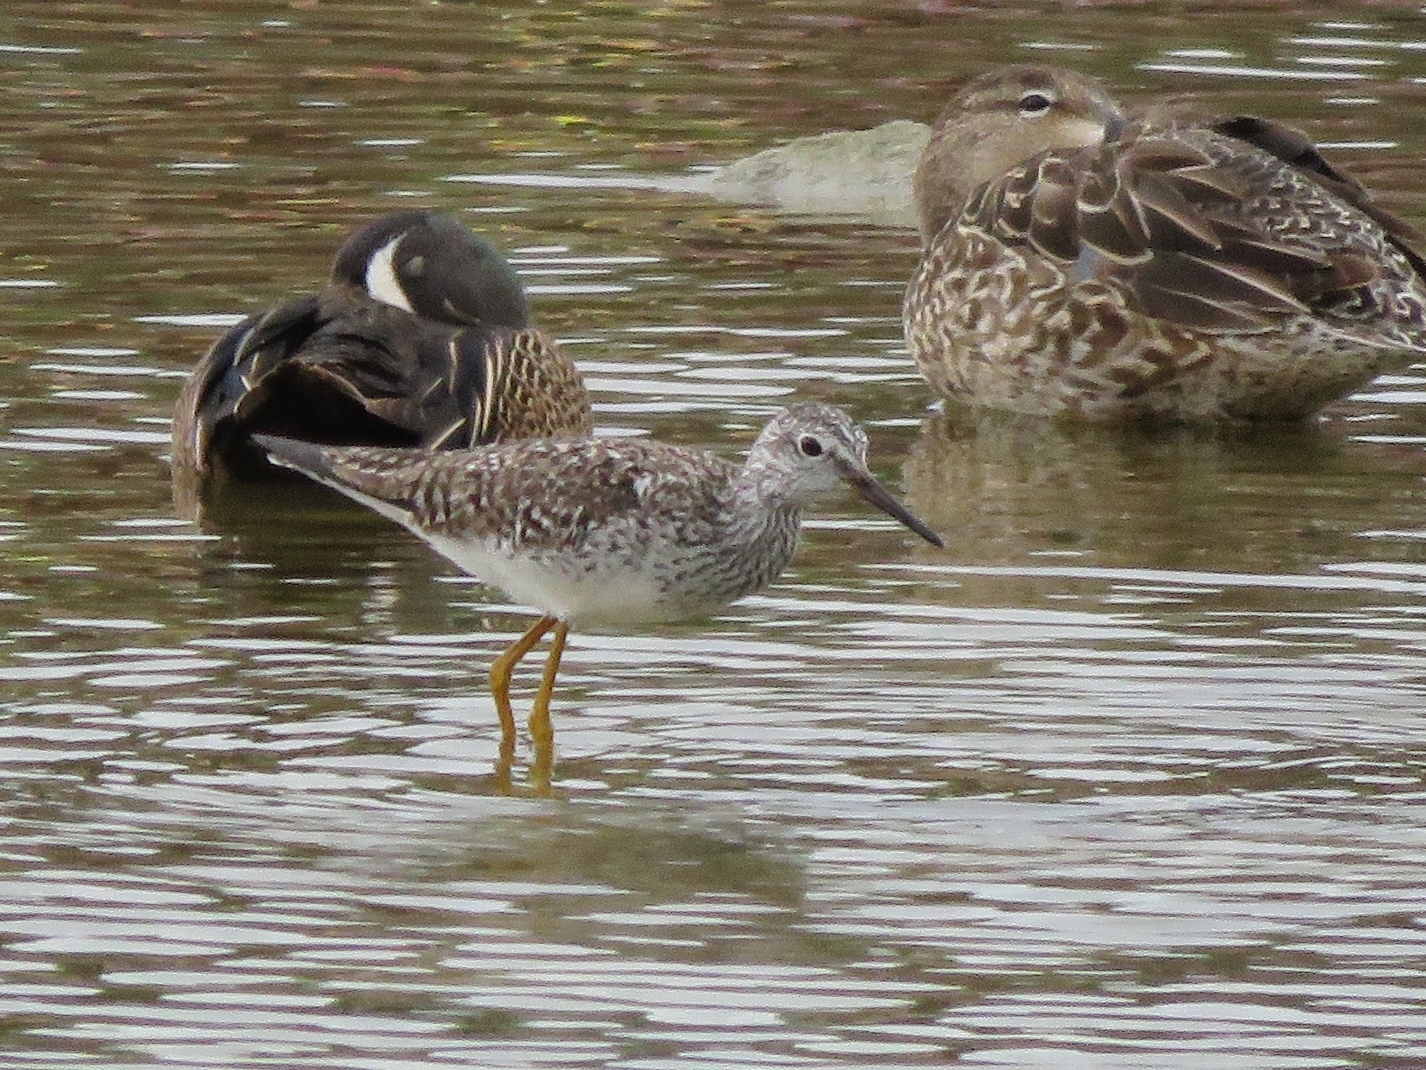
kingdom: Animalia
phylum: Chordata
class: Aves
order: Charadriiformes
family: Scolopacidae
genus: Tringa
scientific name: Tringa flavipes
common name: Lesser yellowlegs
